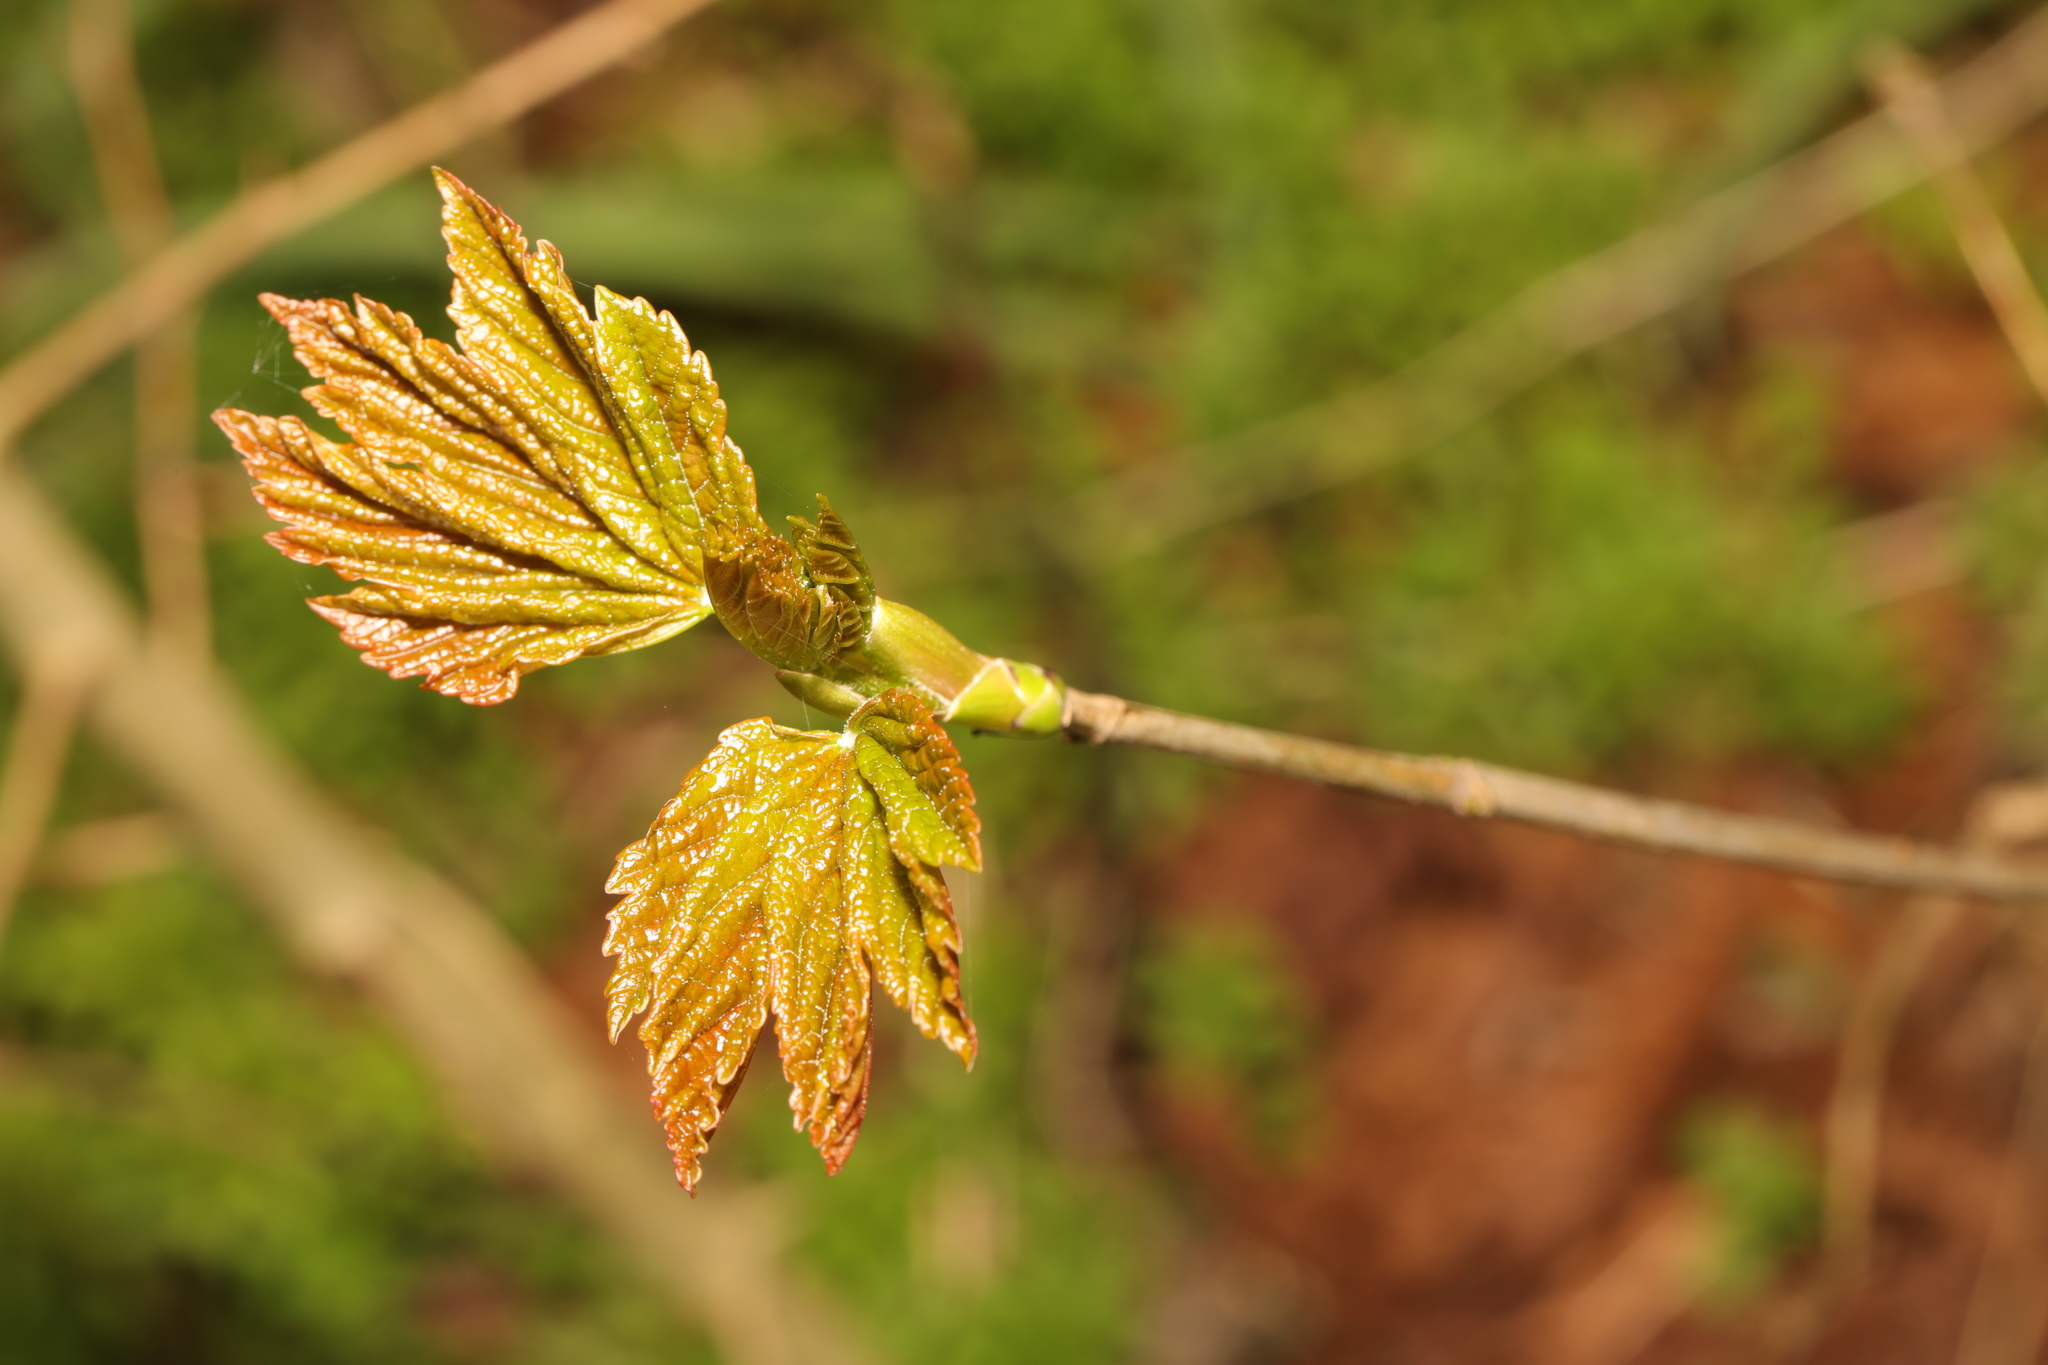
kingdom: Plantae
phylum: Tracheophyta
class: Magnoliopsida
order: Sapindales
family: Sapindaceae
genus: Acer
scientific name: Acer pseudoplatanus
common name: Sycamore
